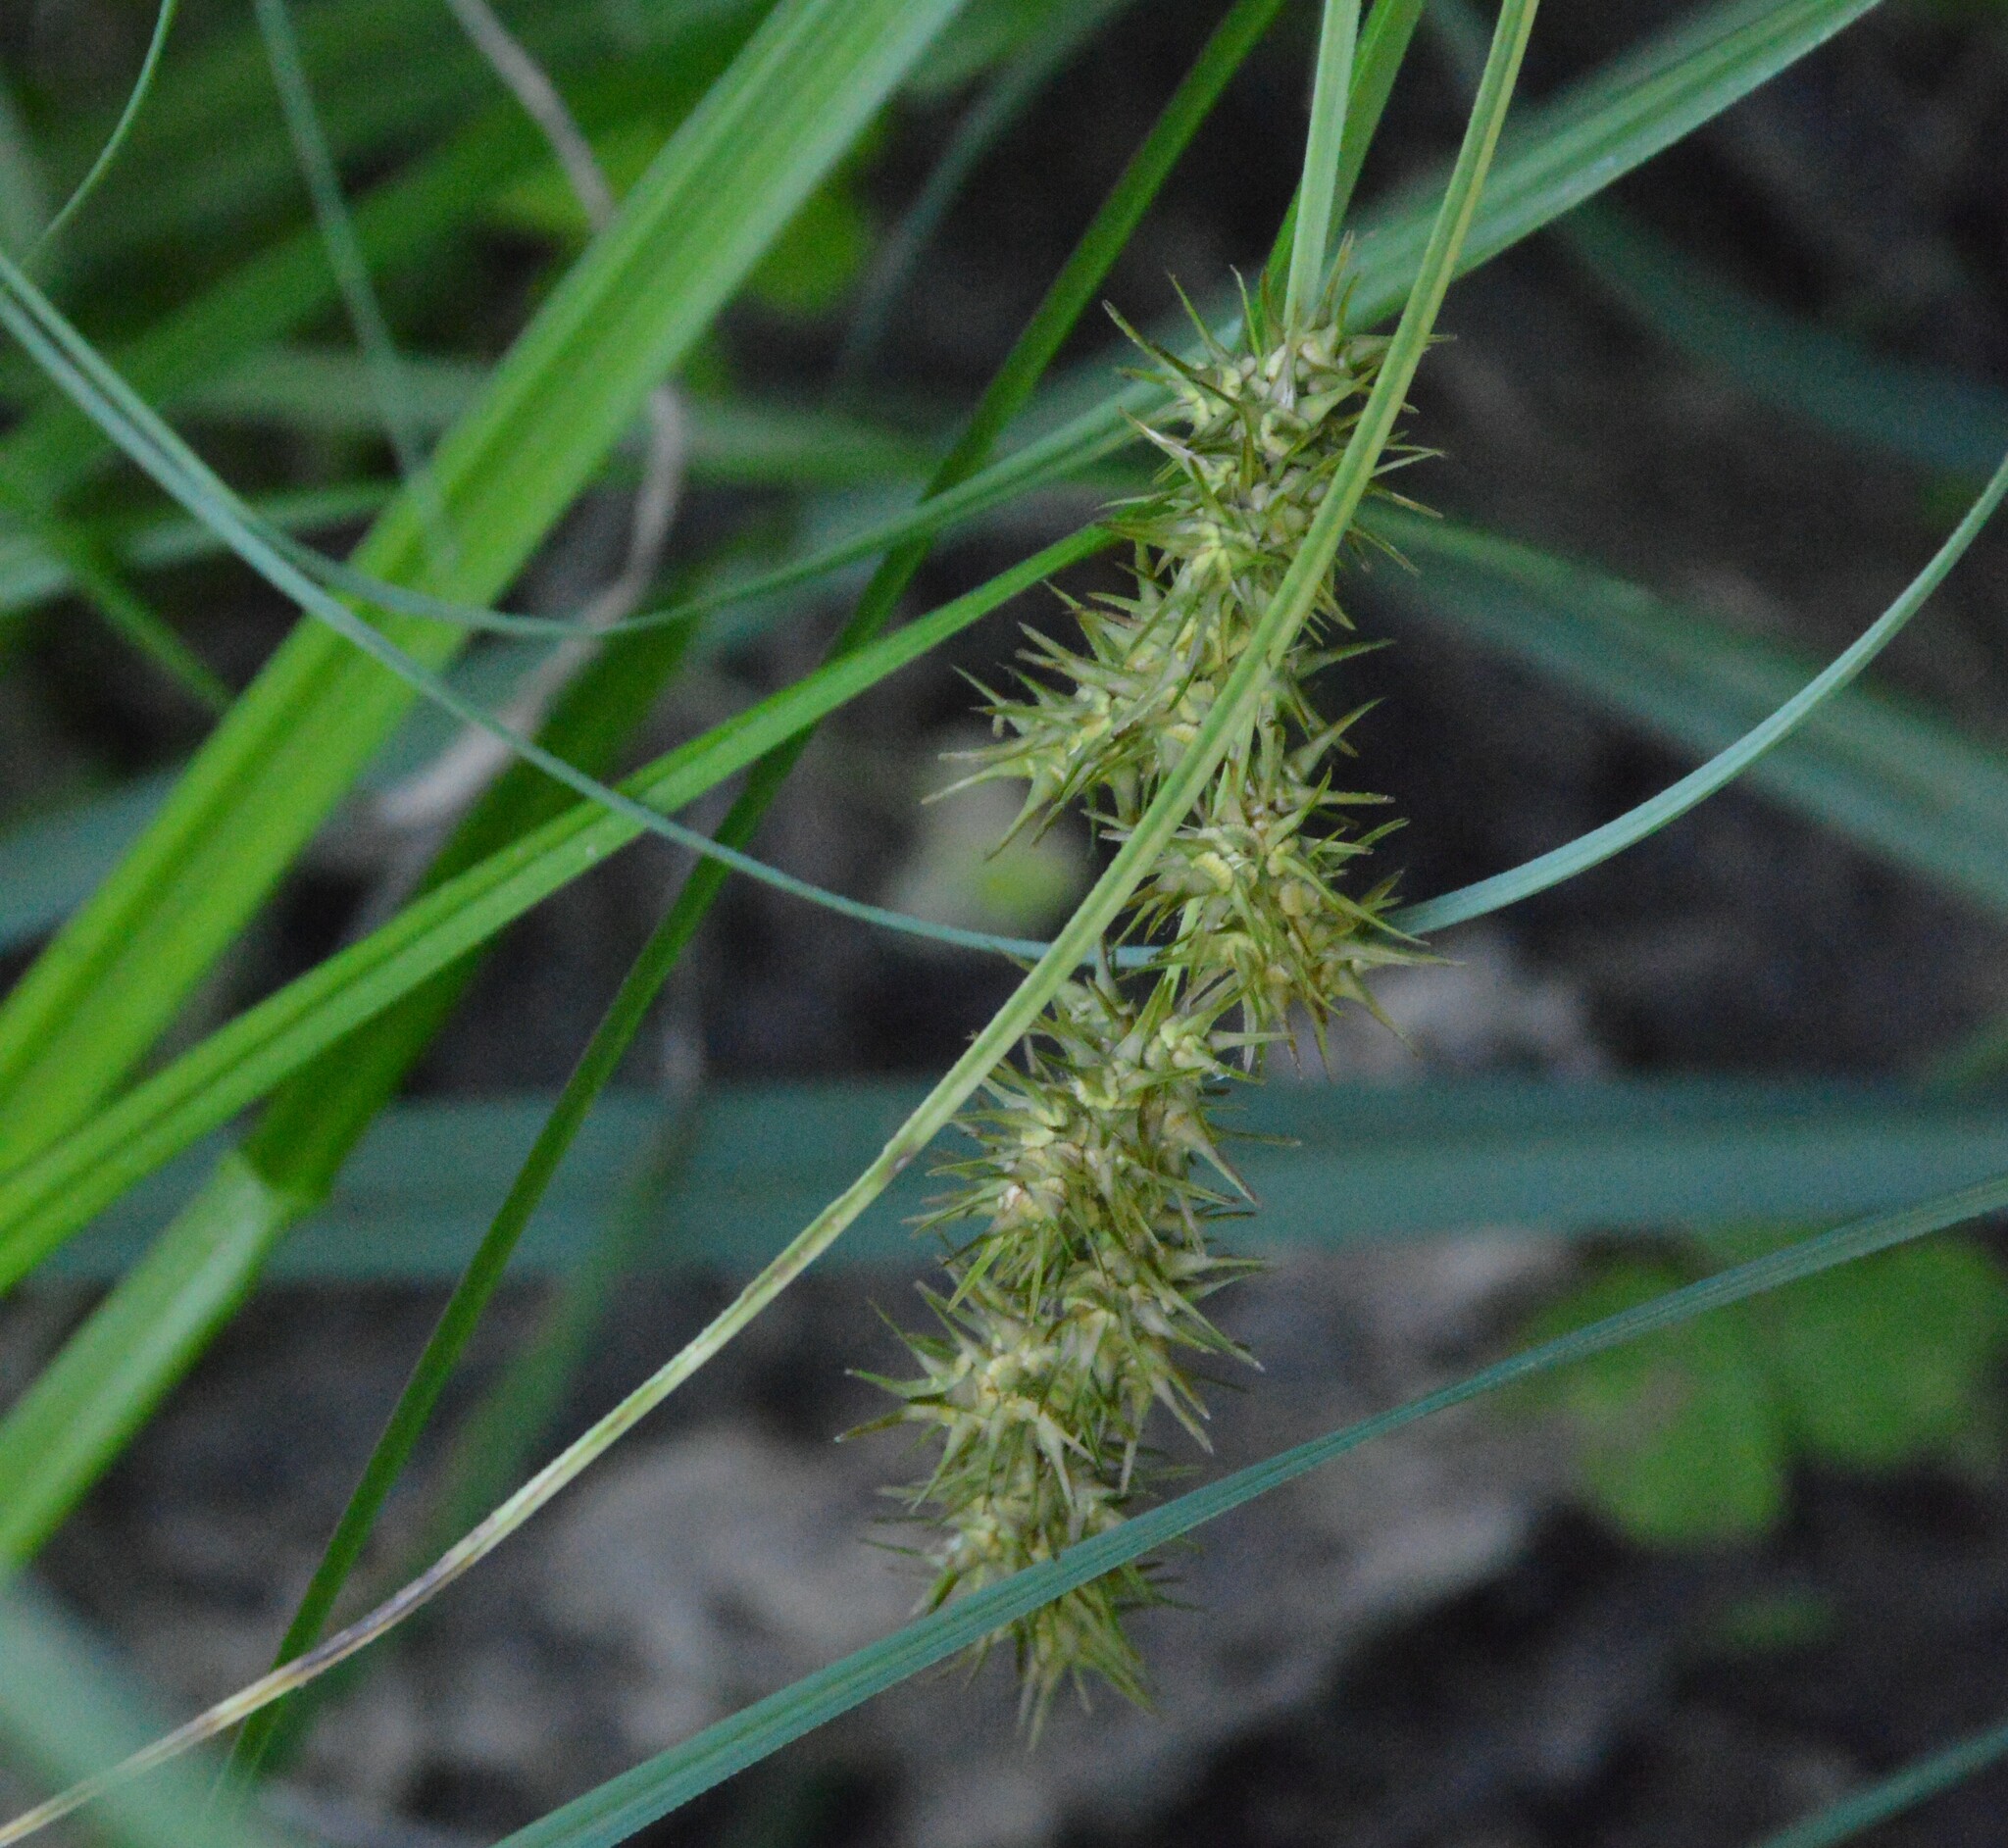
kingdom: Plantae
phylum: Tracheophyta
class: Liliopsida
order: Poales
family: Cyperaceae
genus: Carex
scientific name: Carex crus-corvi
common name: Crow-spur sedge
